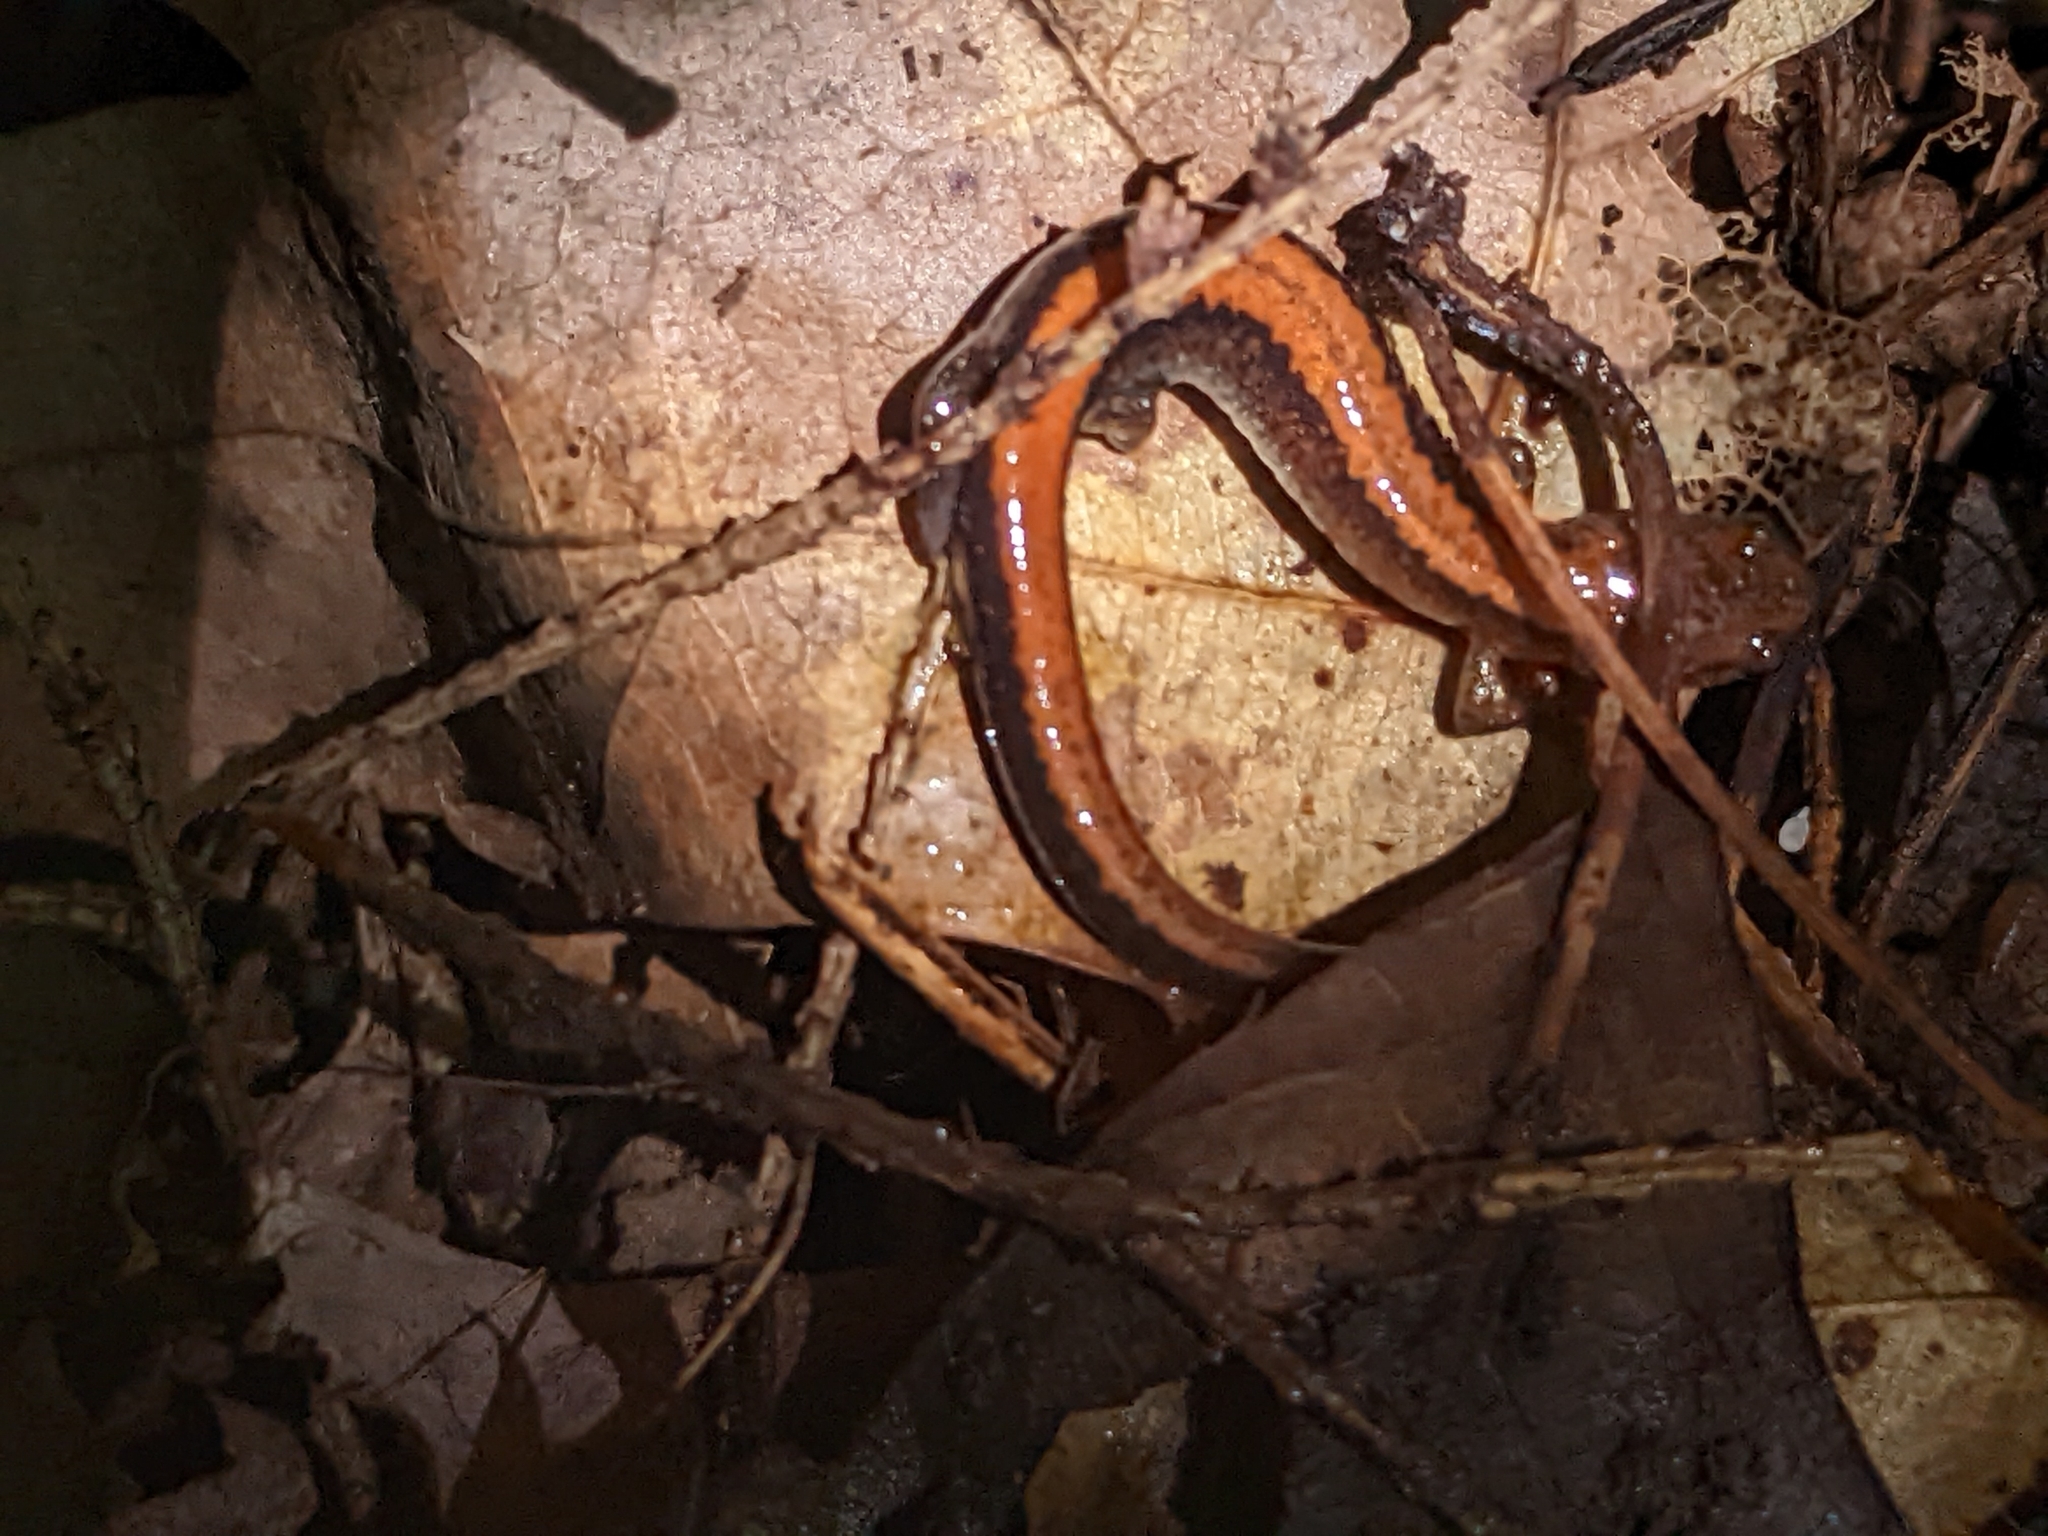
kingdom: Animalia
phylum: Chordata
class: Amphibia
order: Caudata
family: Plethodontidae
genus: Plethodon
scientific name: Plethodon cinereus
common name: Redback salamander
